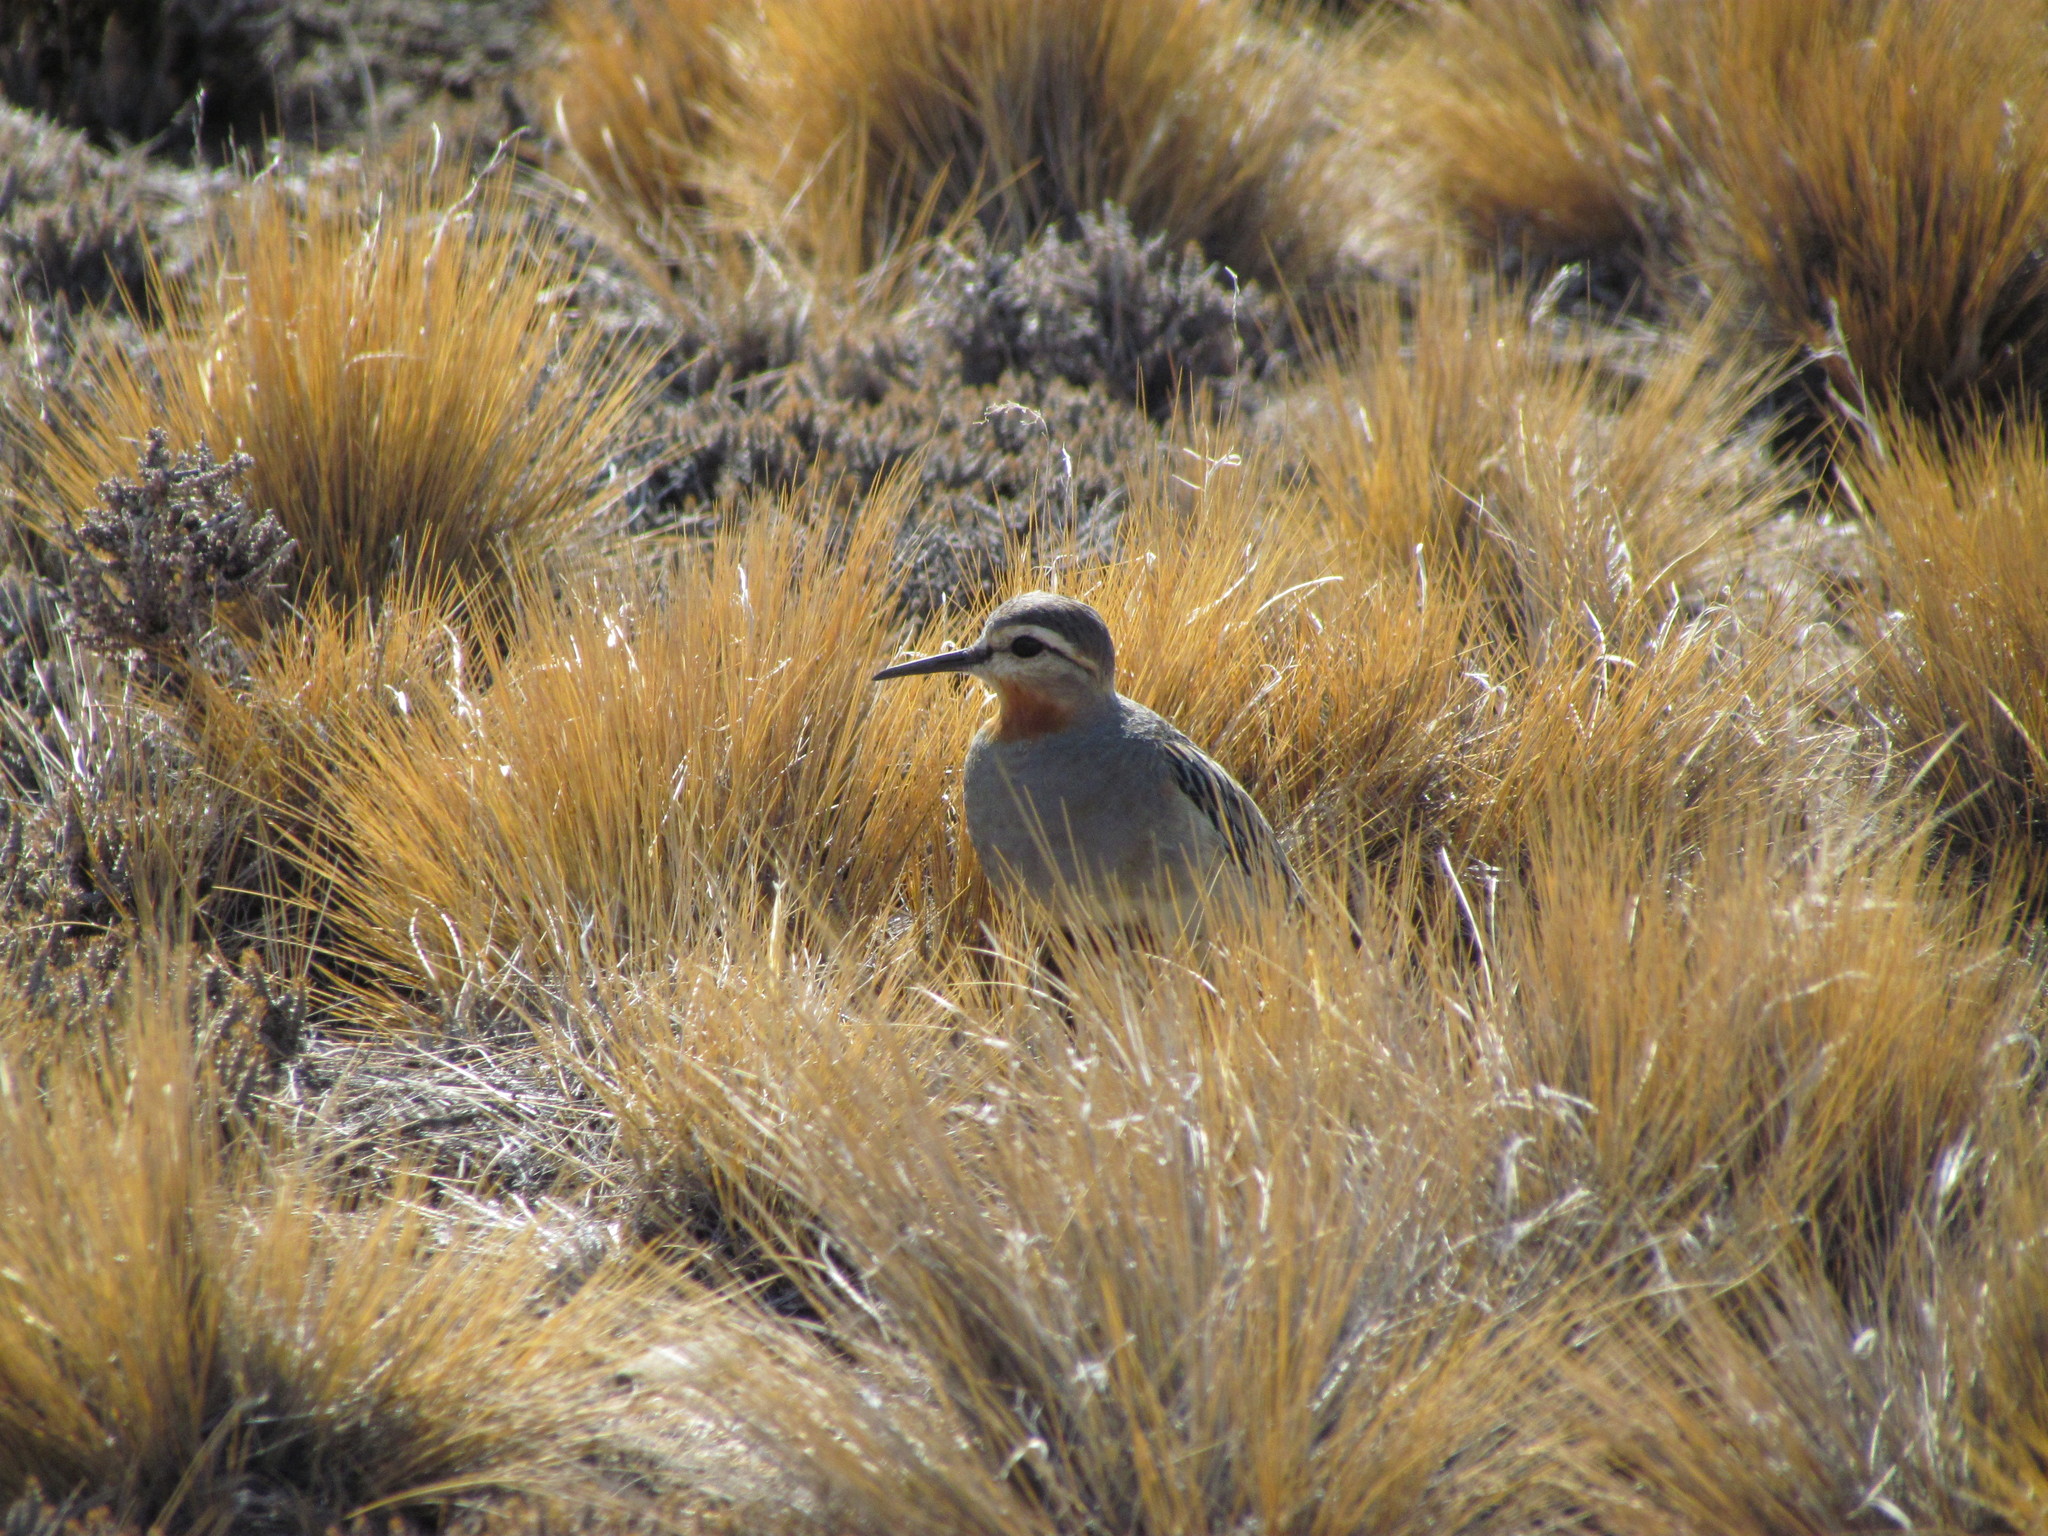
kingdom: Animalia
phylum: Chordata
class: Aves
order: Charadriiformes
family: Charadriidae
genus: Oreopholus
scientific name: Oreopholus ruficollis
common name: Tawny-throated dotterel
